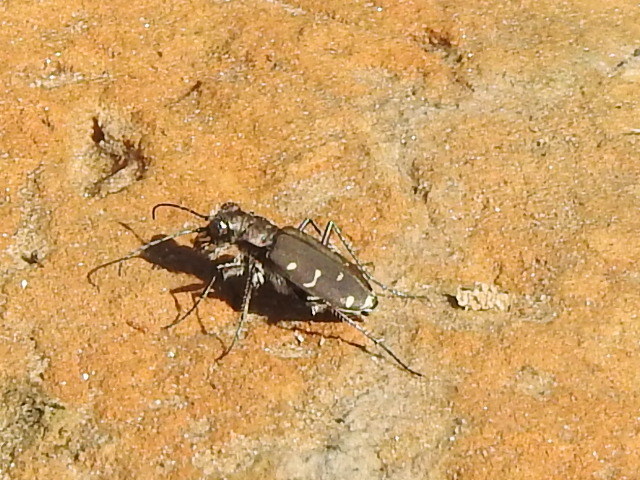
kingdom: Animalia
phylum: Arthropoda
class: Insecta
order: Coleoptera
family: Carabidae
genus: Cicindela
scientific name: Cicindela duodecimguttata
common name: Twelve-spotted tiger beetle
